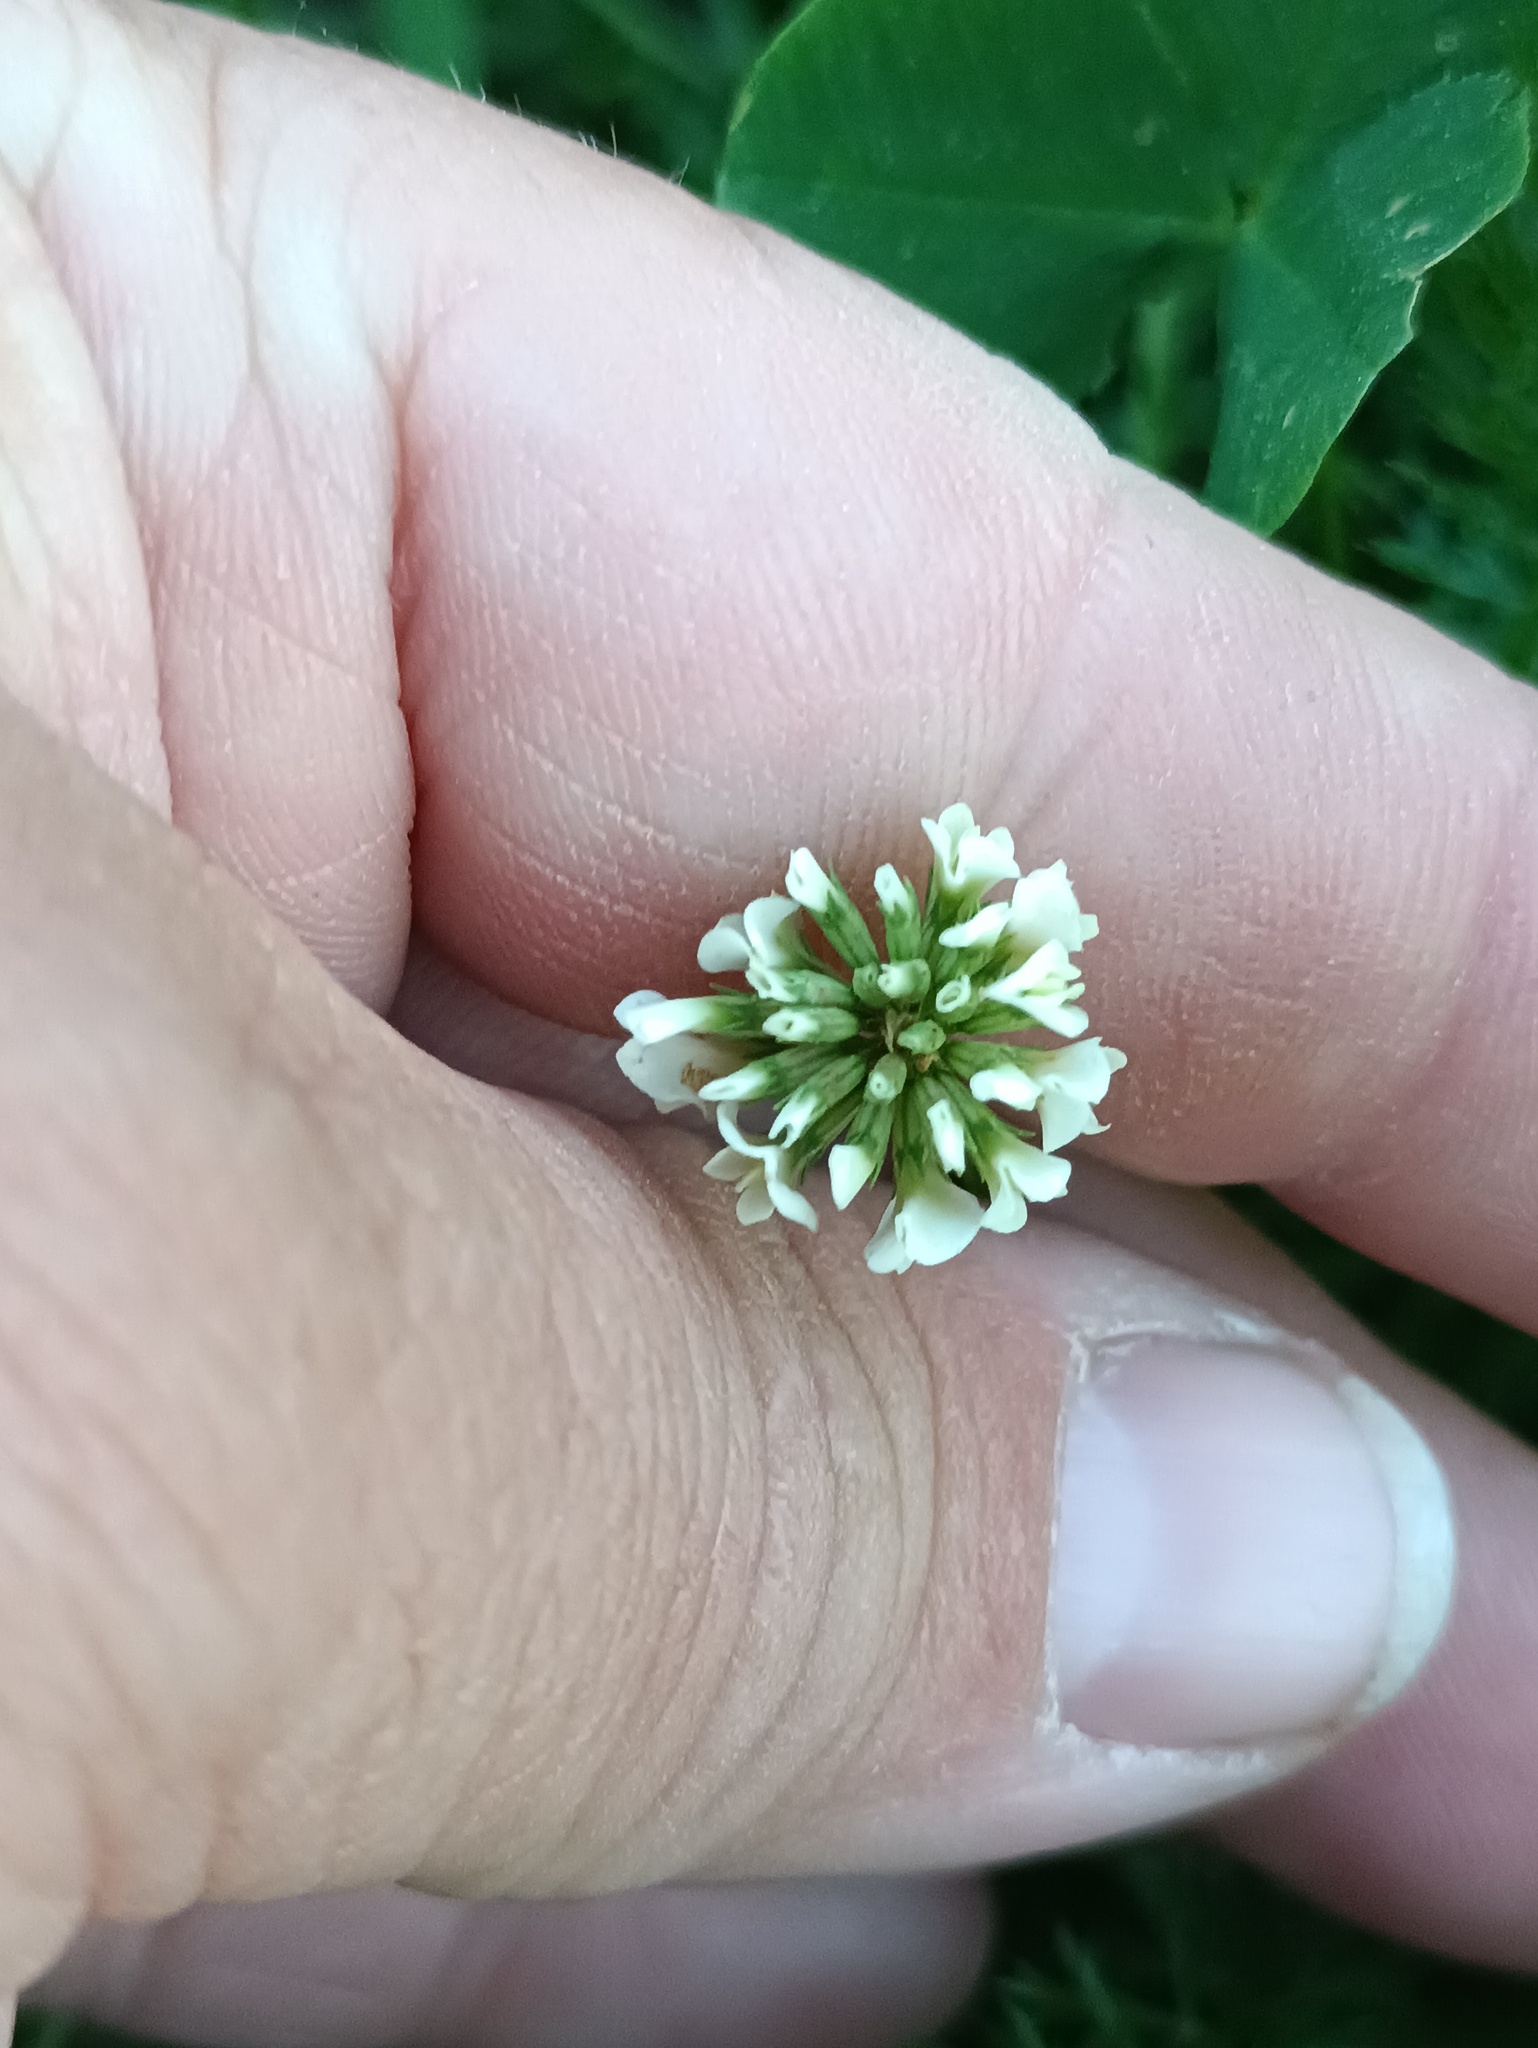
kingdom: Plantae
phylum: Tracheophyta
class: Magnoliopsida
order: Fabales
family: Fabaceae
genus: Trifolium
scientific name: Trifolium repens
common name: White clover
